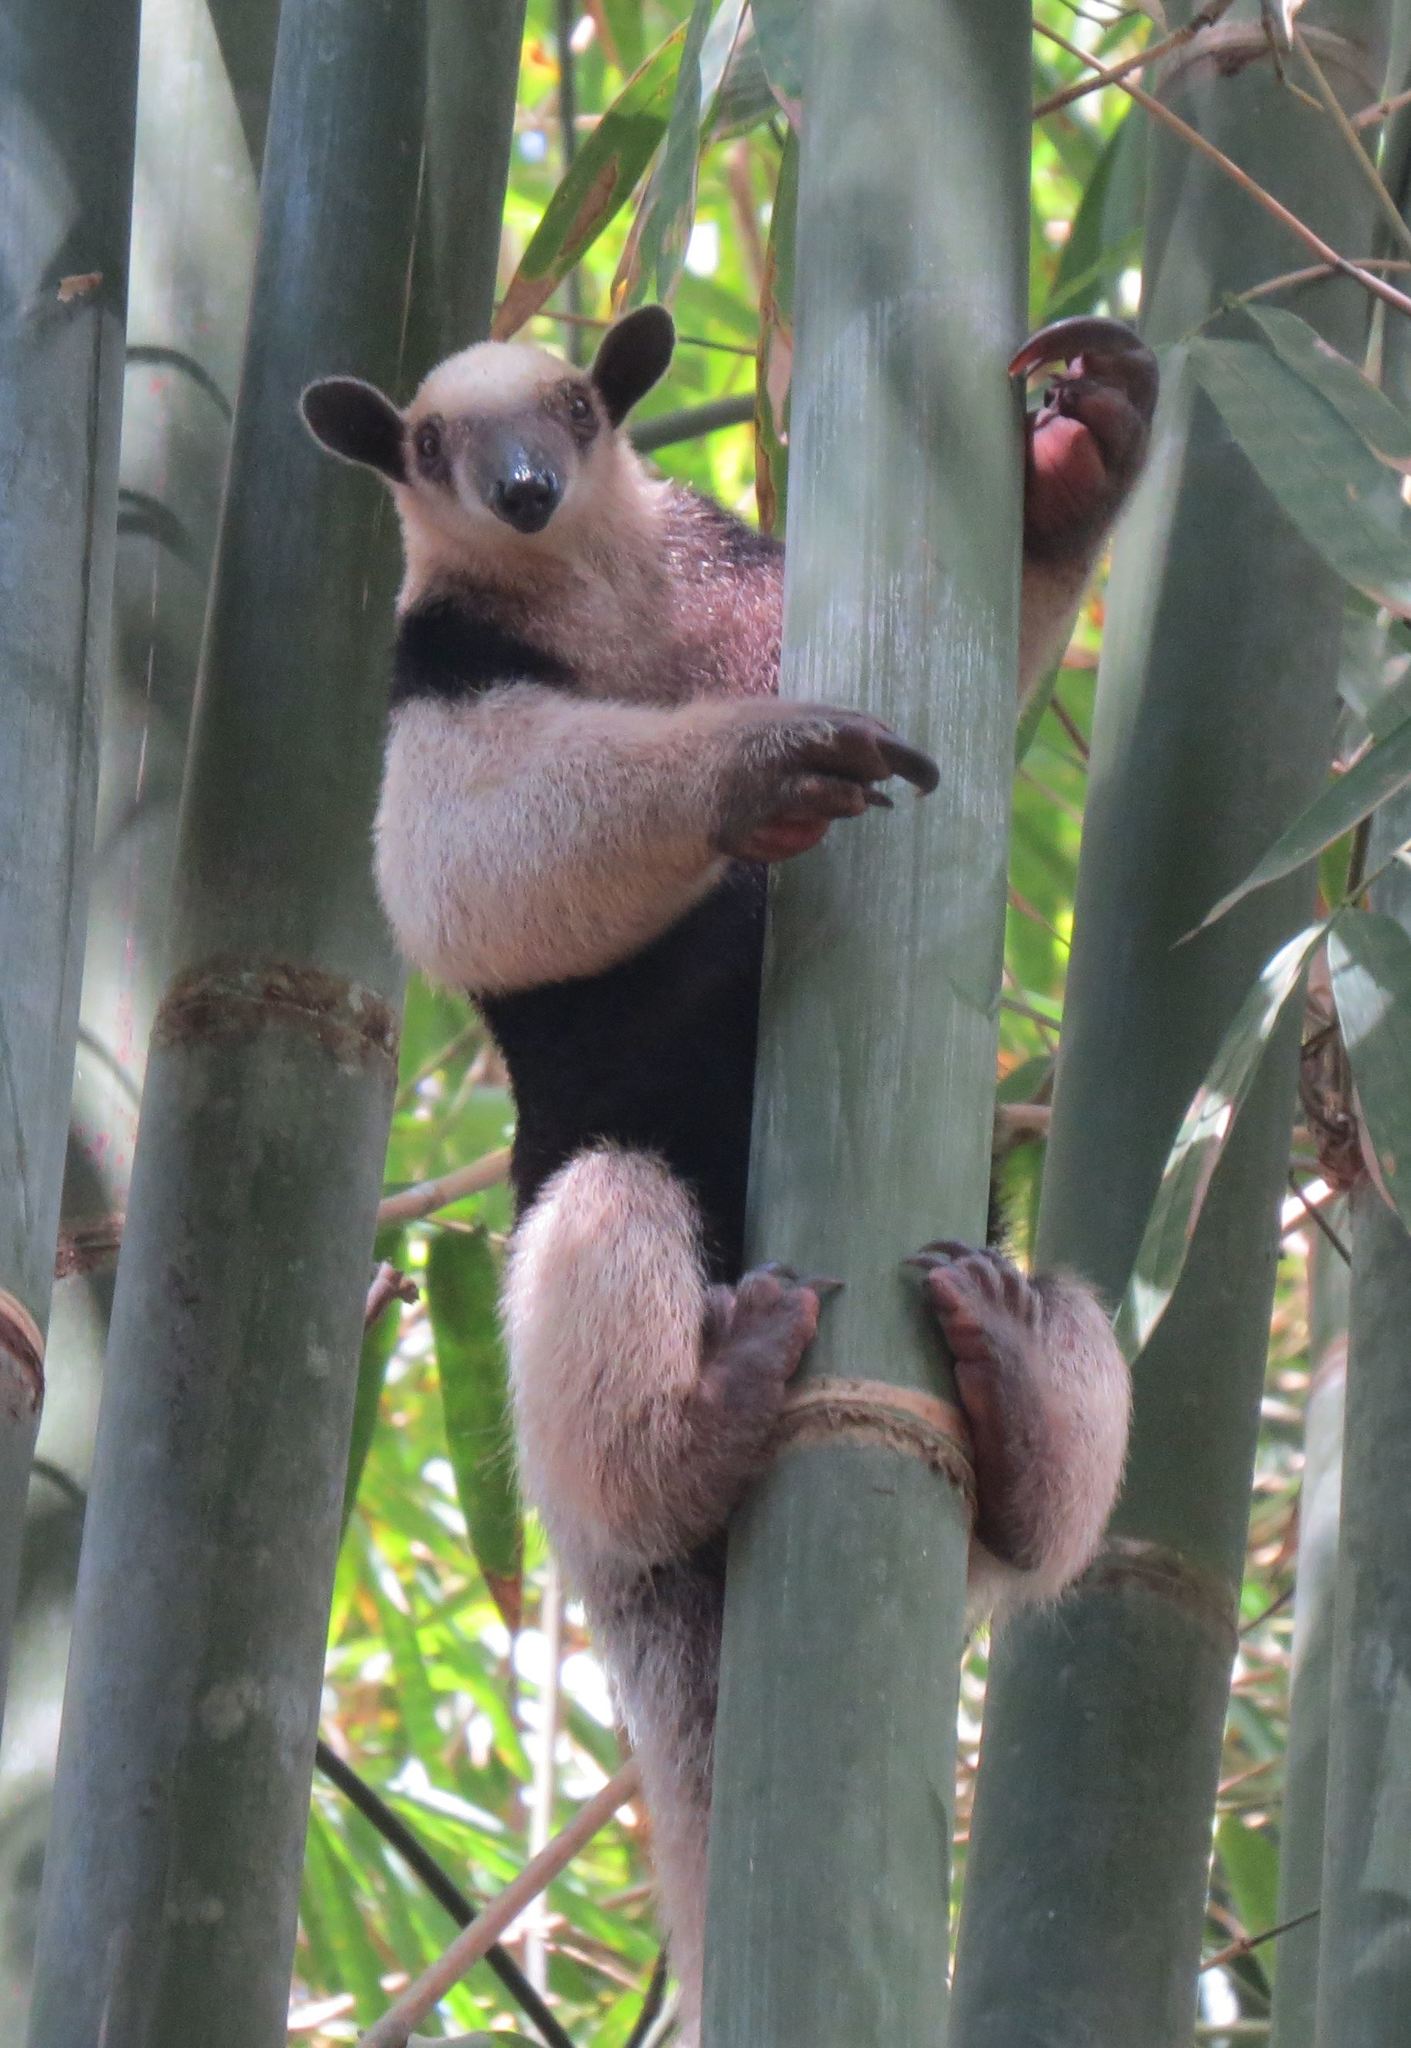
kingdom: Animalia
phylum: Chordata
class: Mammalia
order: Pilosa
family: Myrmecophagidae
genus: Tamandua
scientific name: Tamandua mexicana
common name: Northern tamandua
